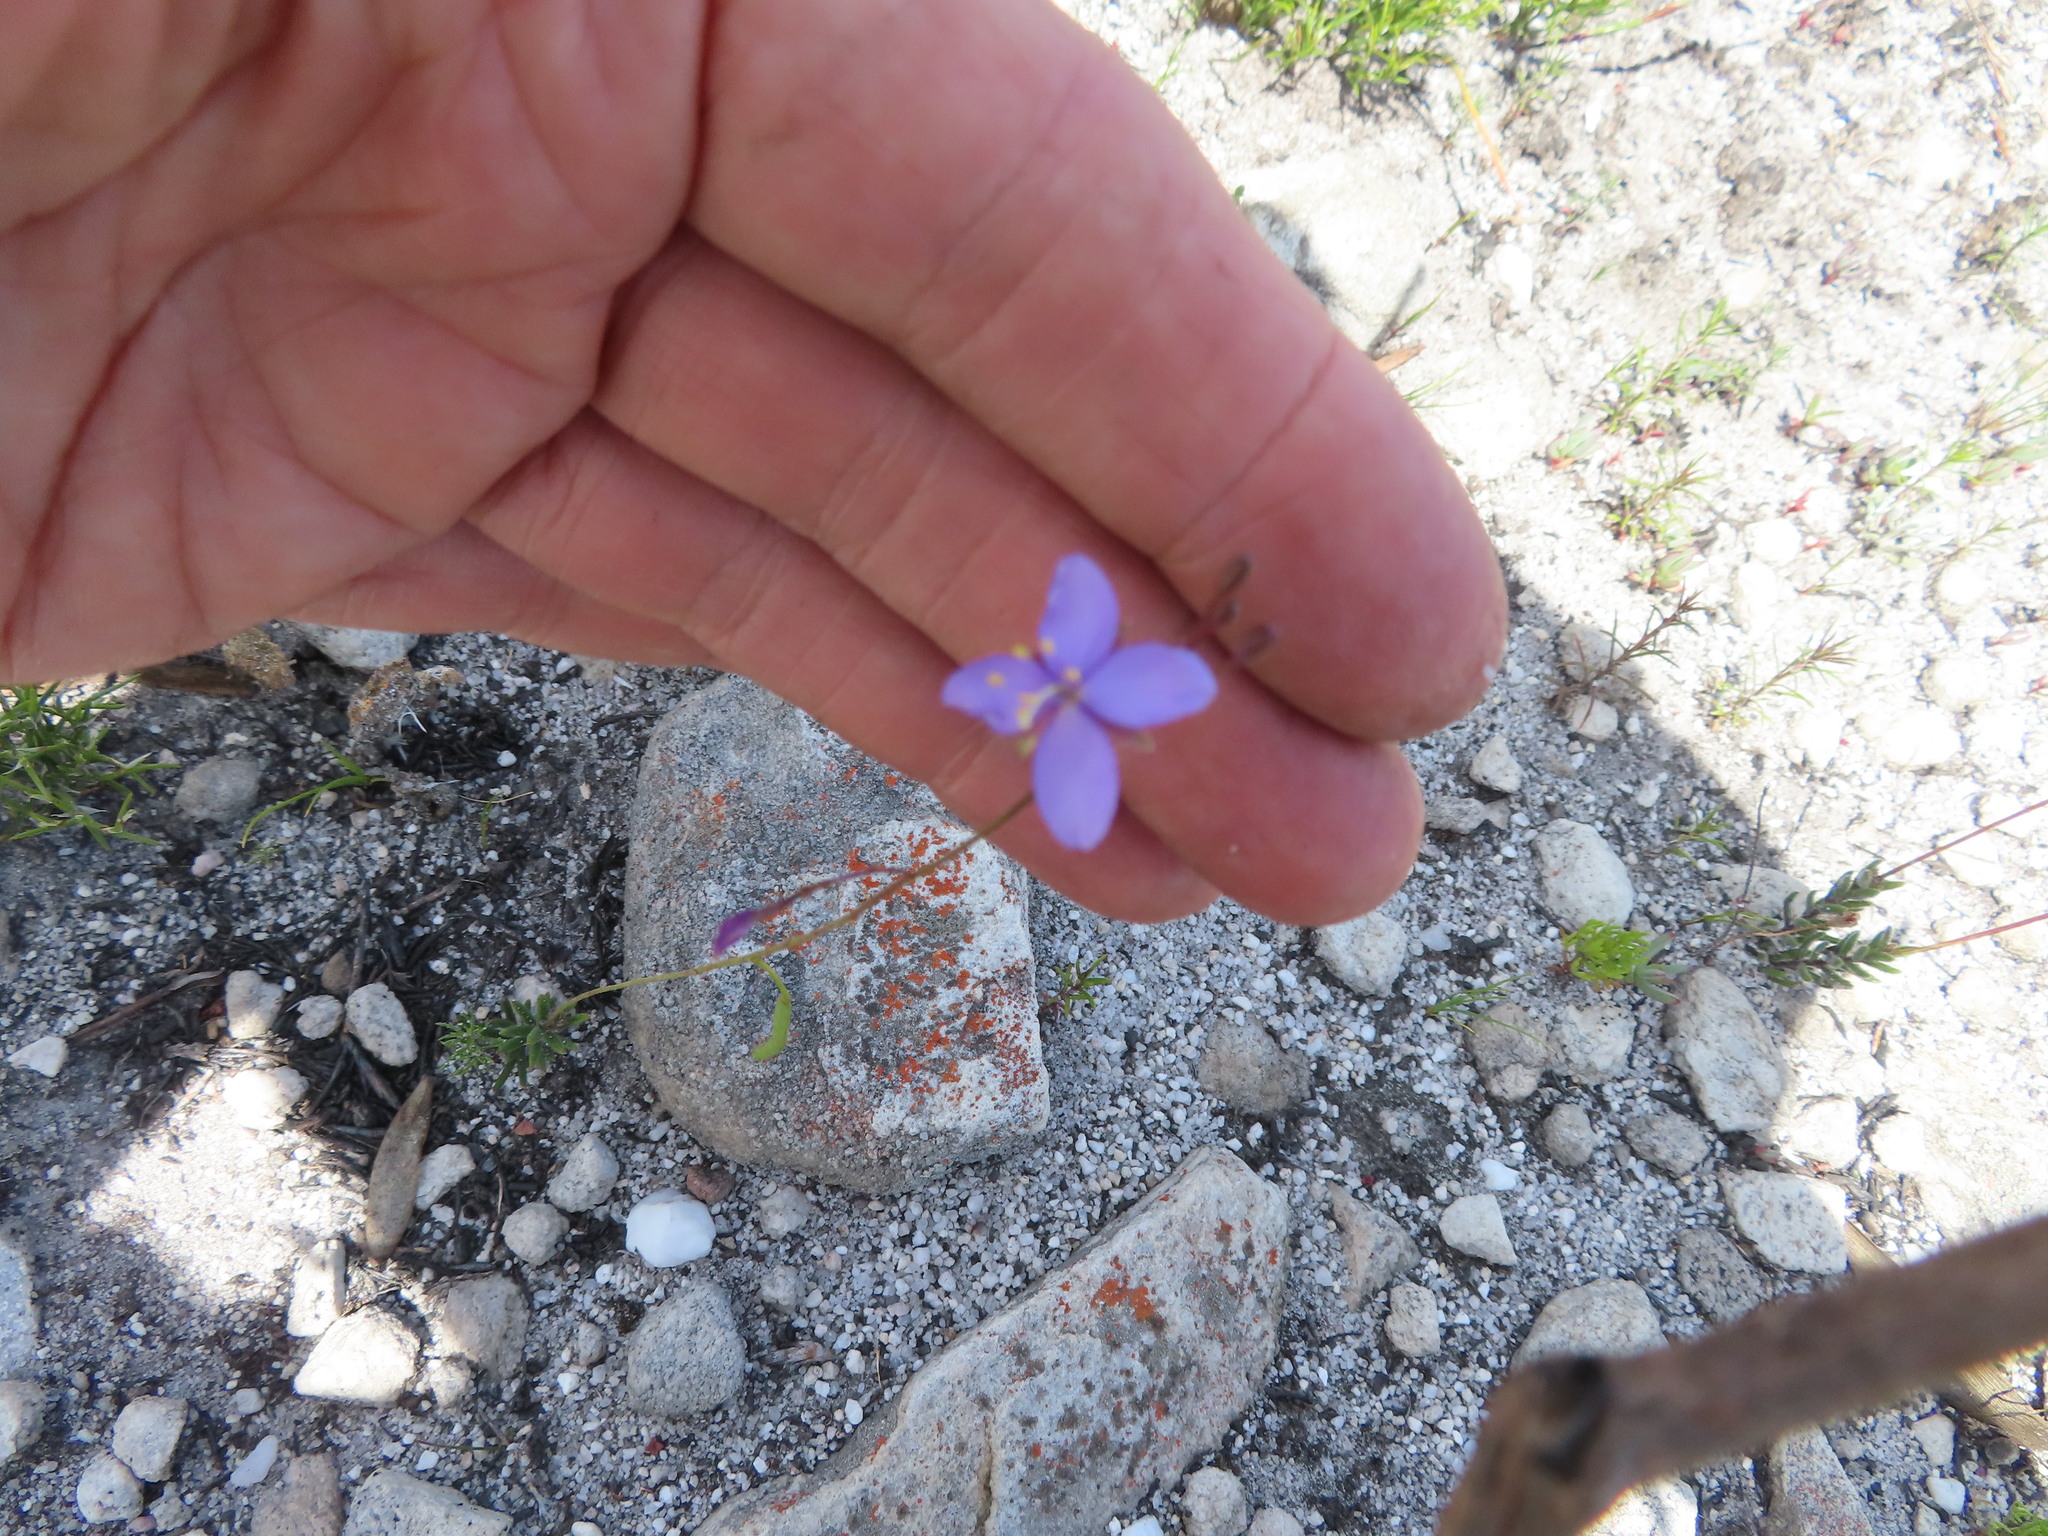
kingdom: Plantae
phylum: Tracheophyta
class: Magnoliopsida
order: Brassicales
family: Brassicaceae
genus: Heliophila
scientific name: Heliophila subulata
